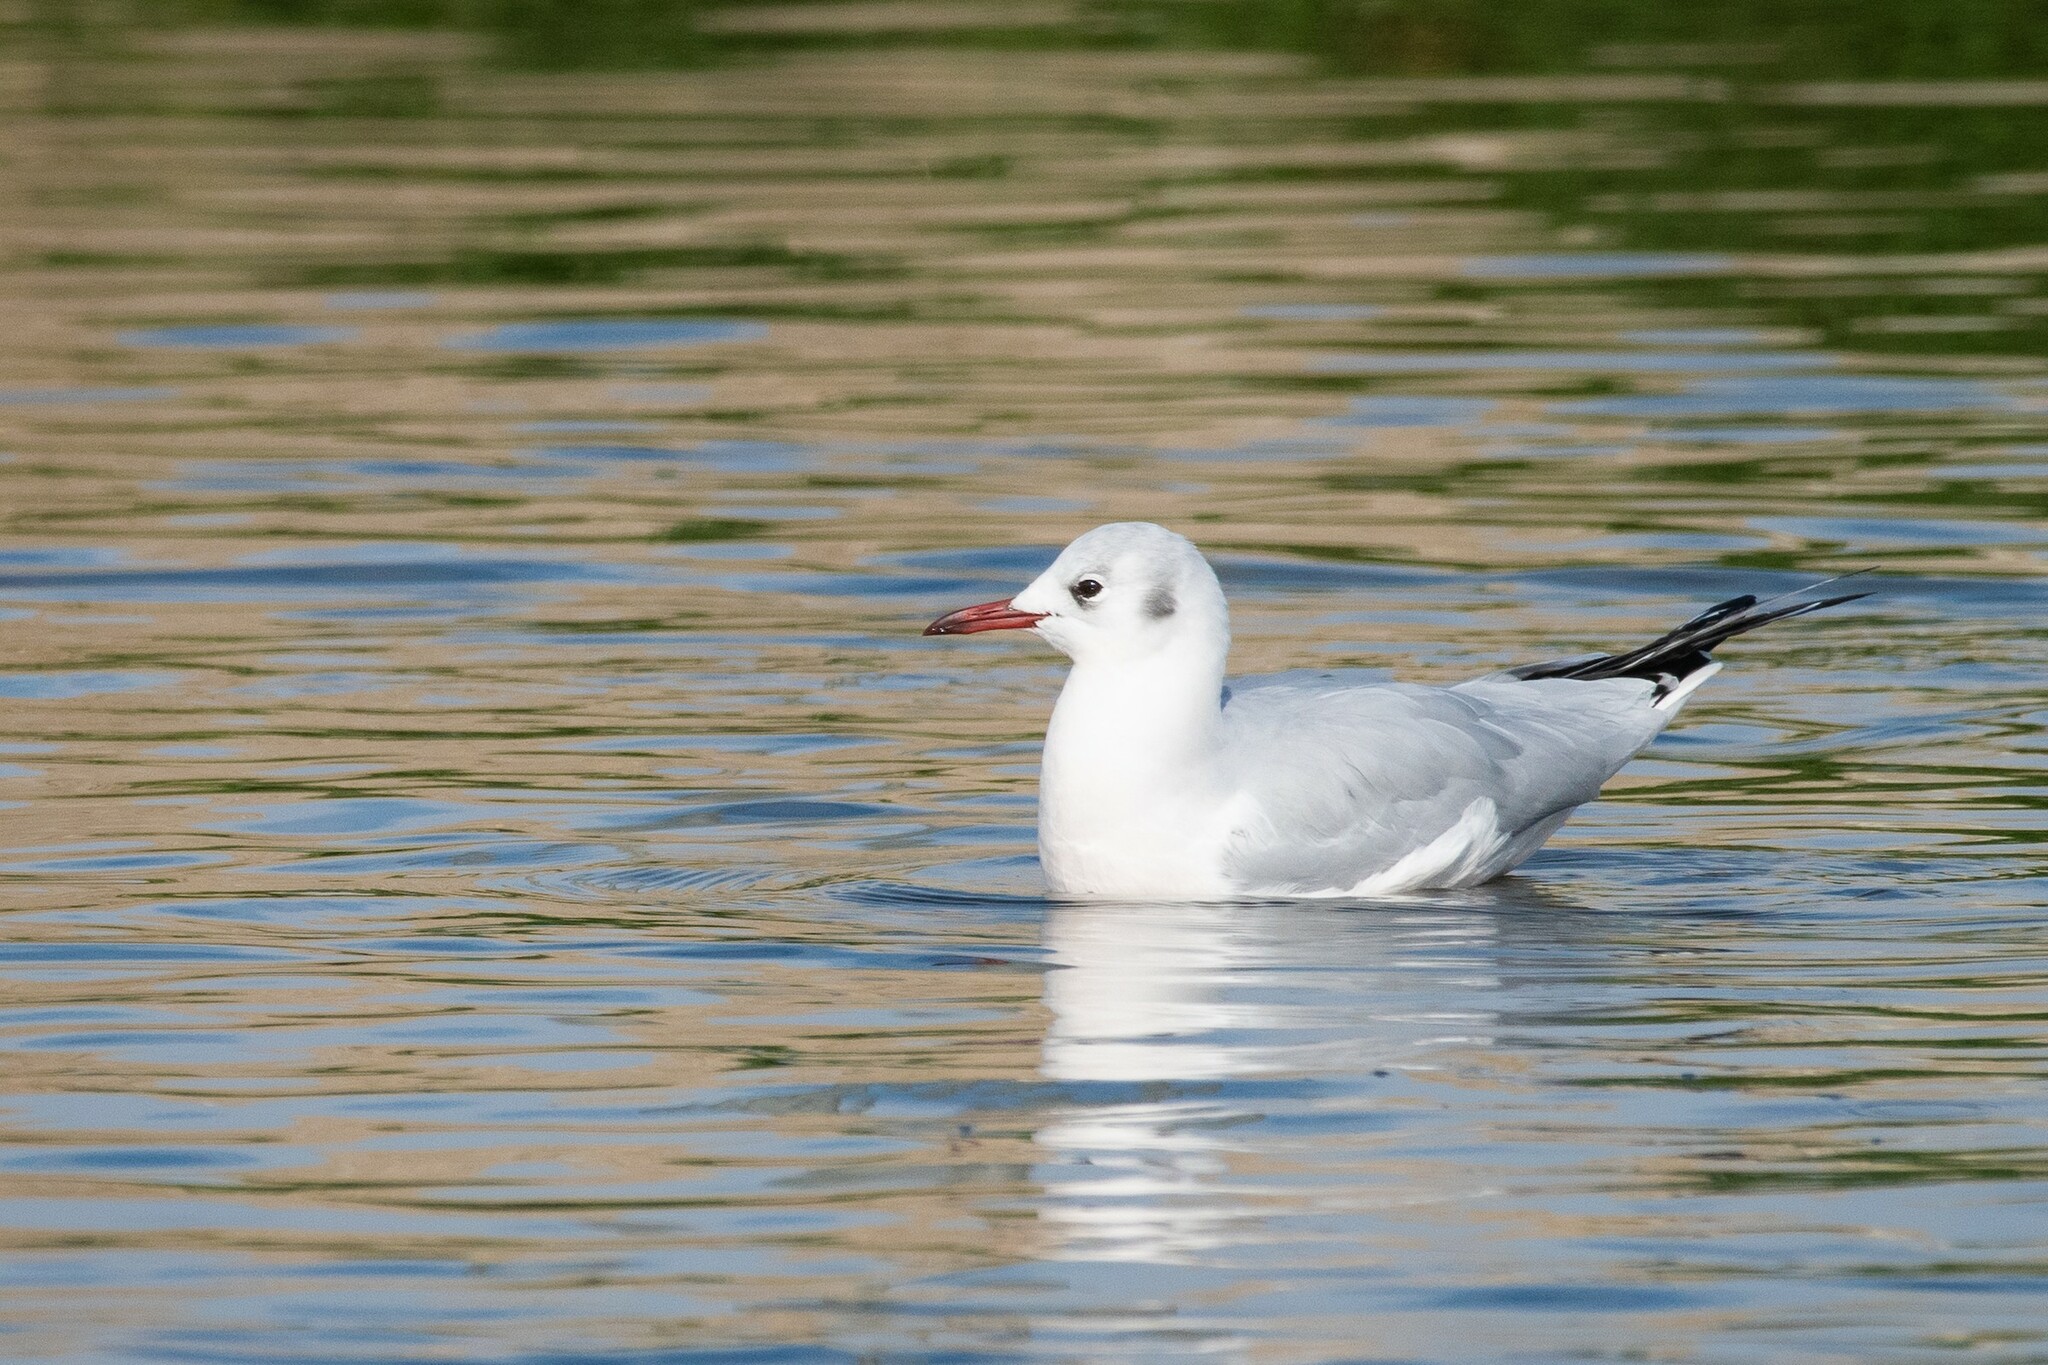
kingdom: Animalia
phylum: Chordata
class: Aves
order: Charadriiformes
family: Laridae
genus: Chroicocephalus
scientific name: Chroicocephalus ridibundus
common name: Black-headed gull
